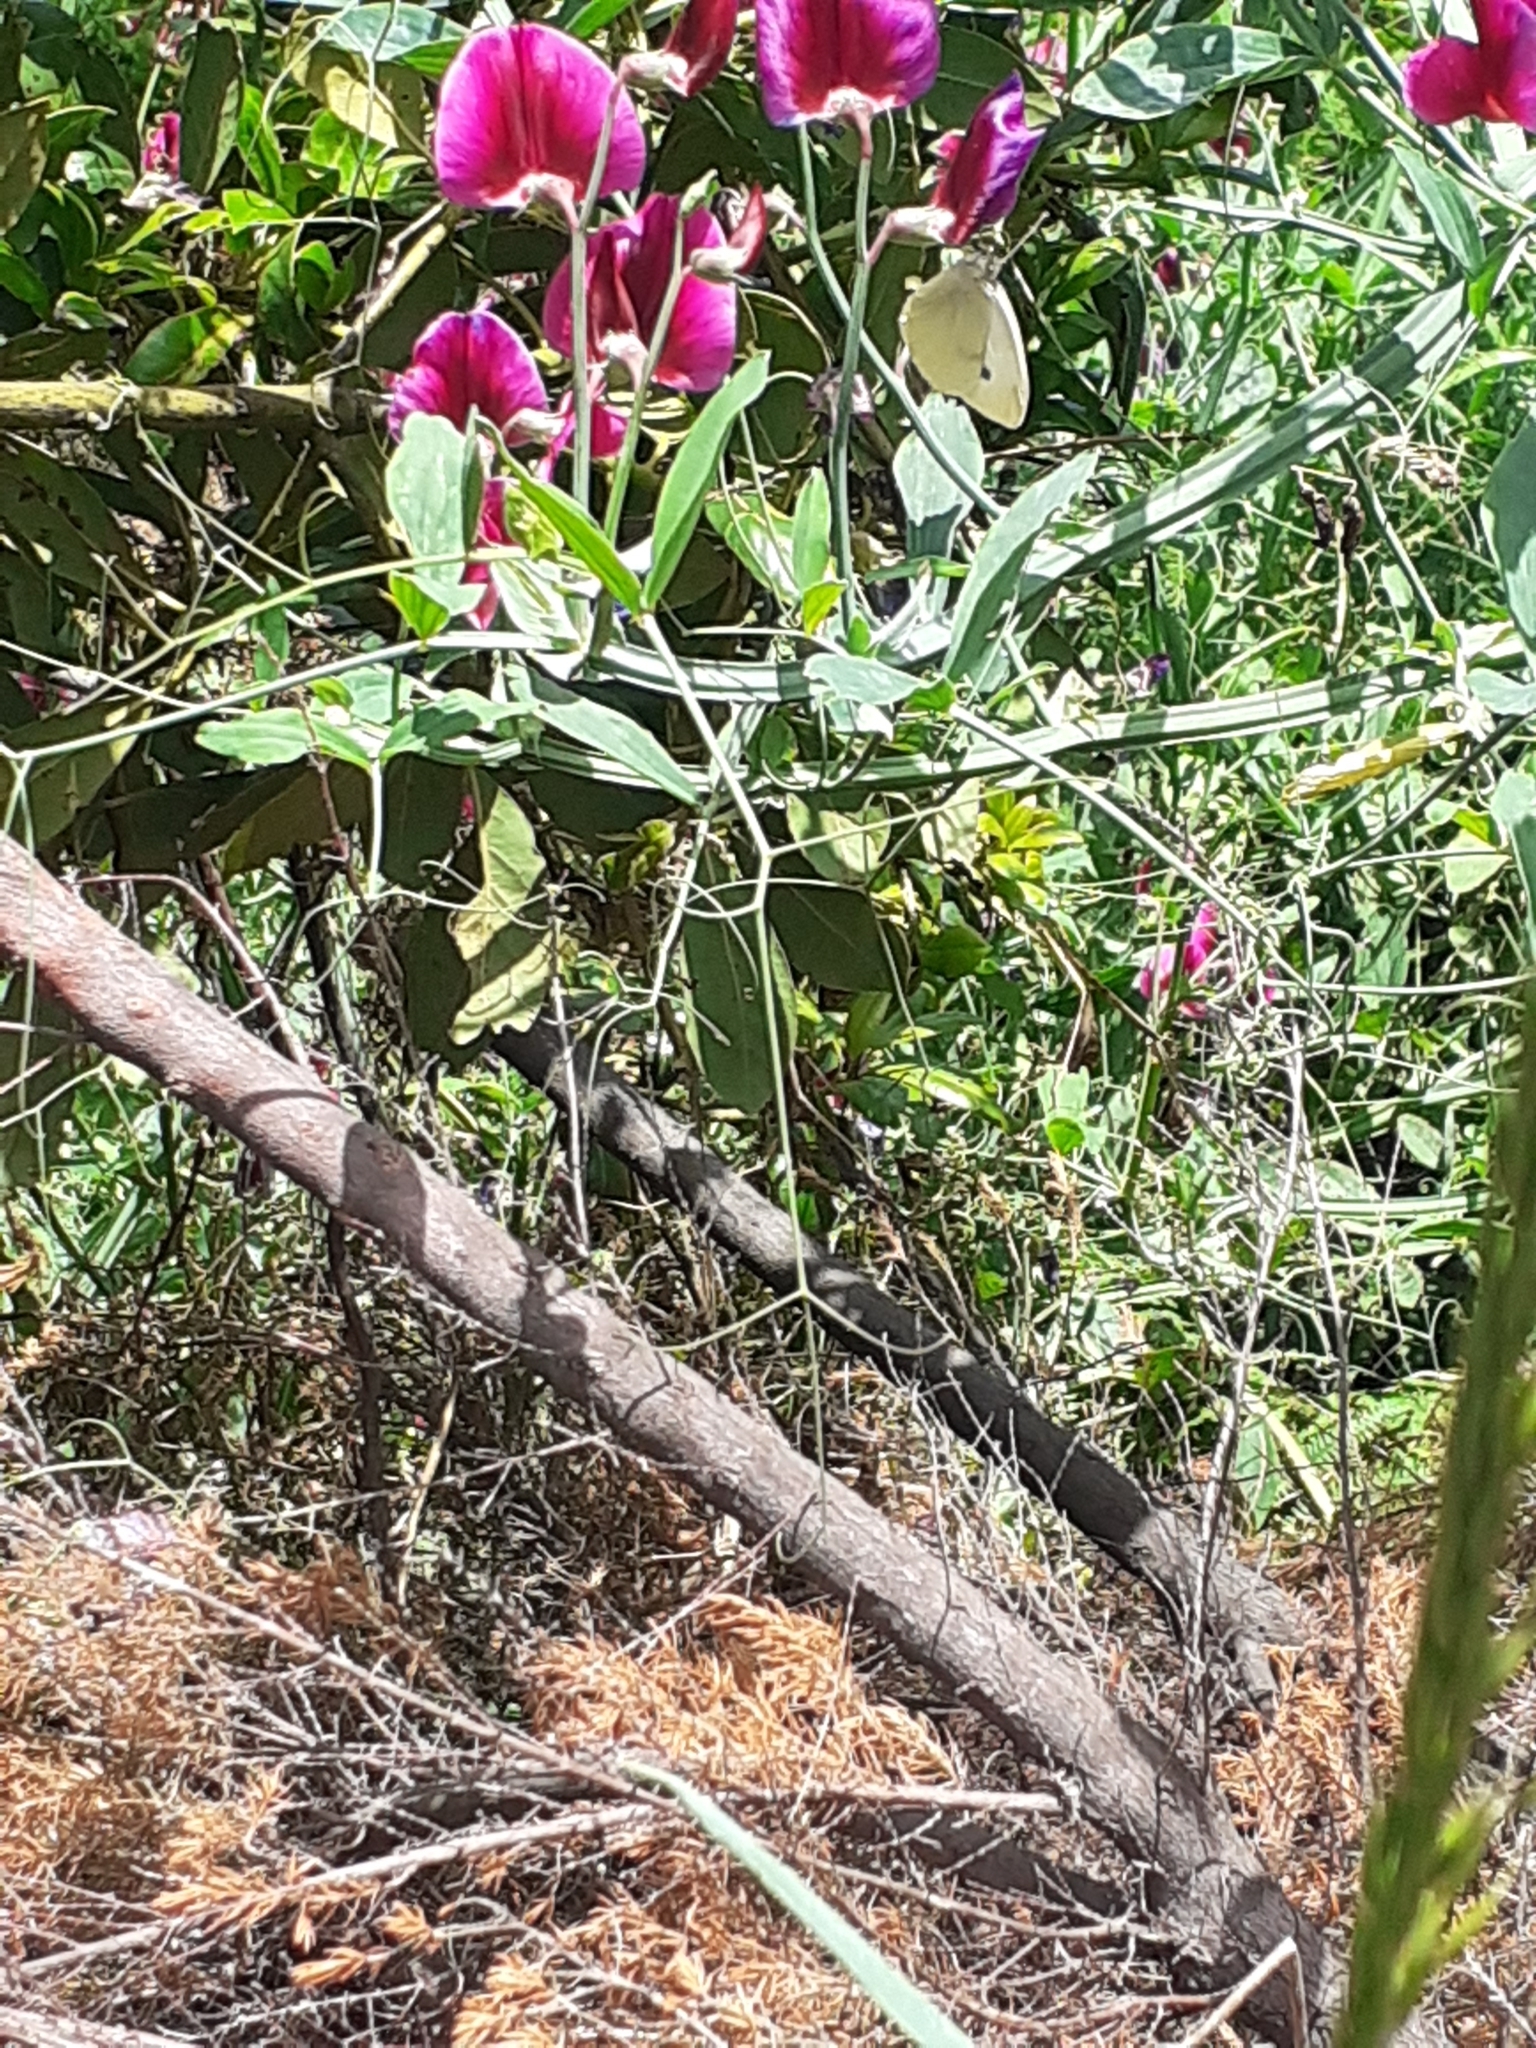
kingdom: Animalia
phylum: Arthropoda
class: Insecta
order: Lepidoptera
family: Pieridae
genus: Pieris
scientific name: Pieris rapae
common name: Small white
